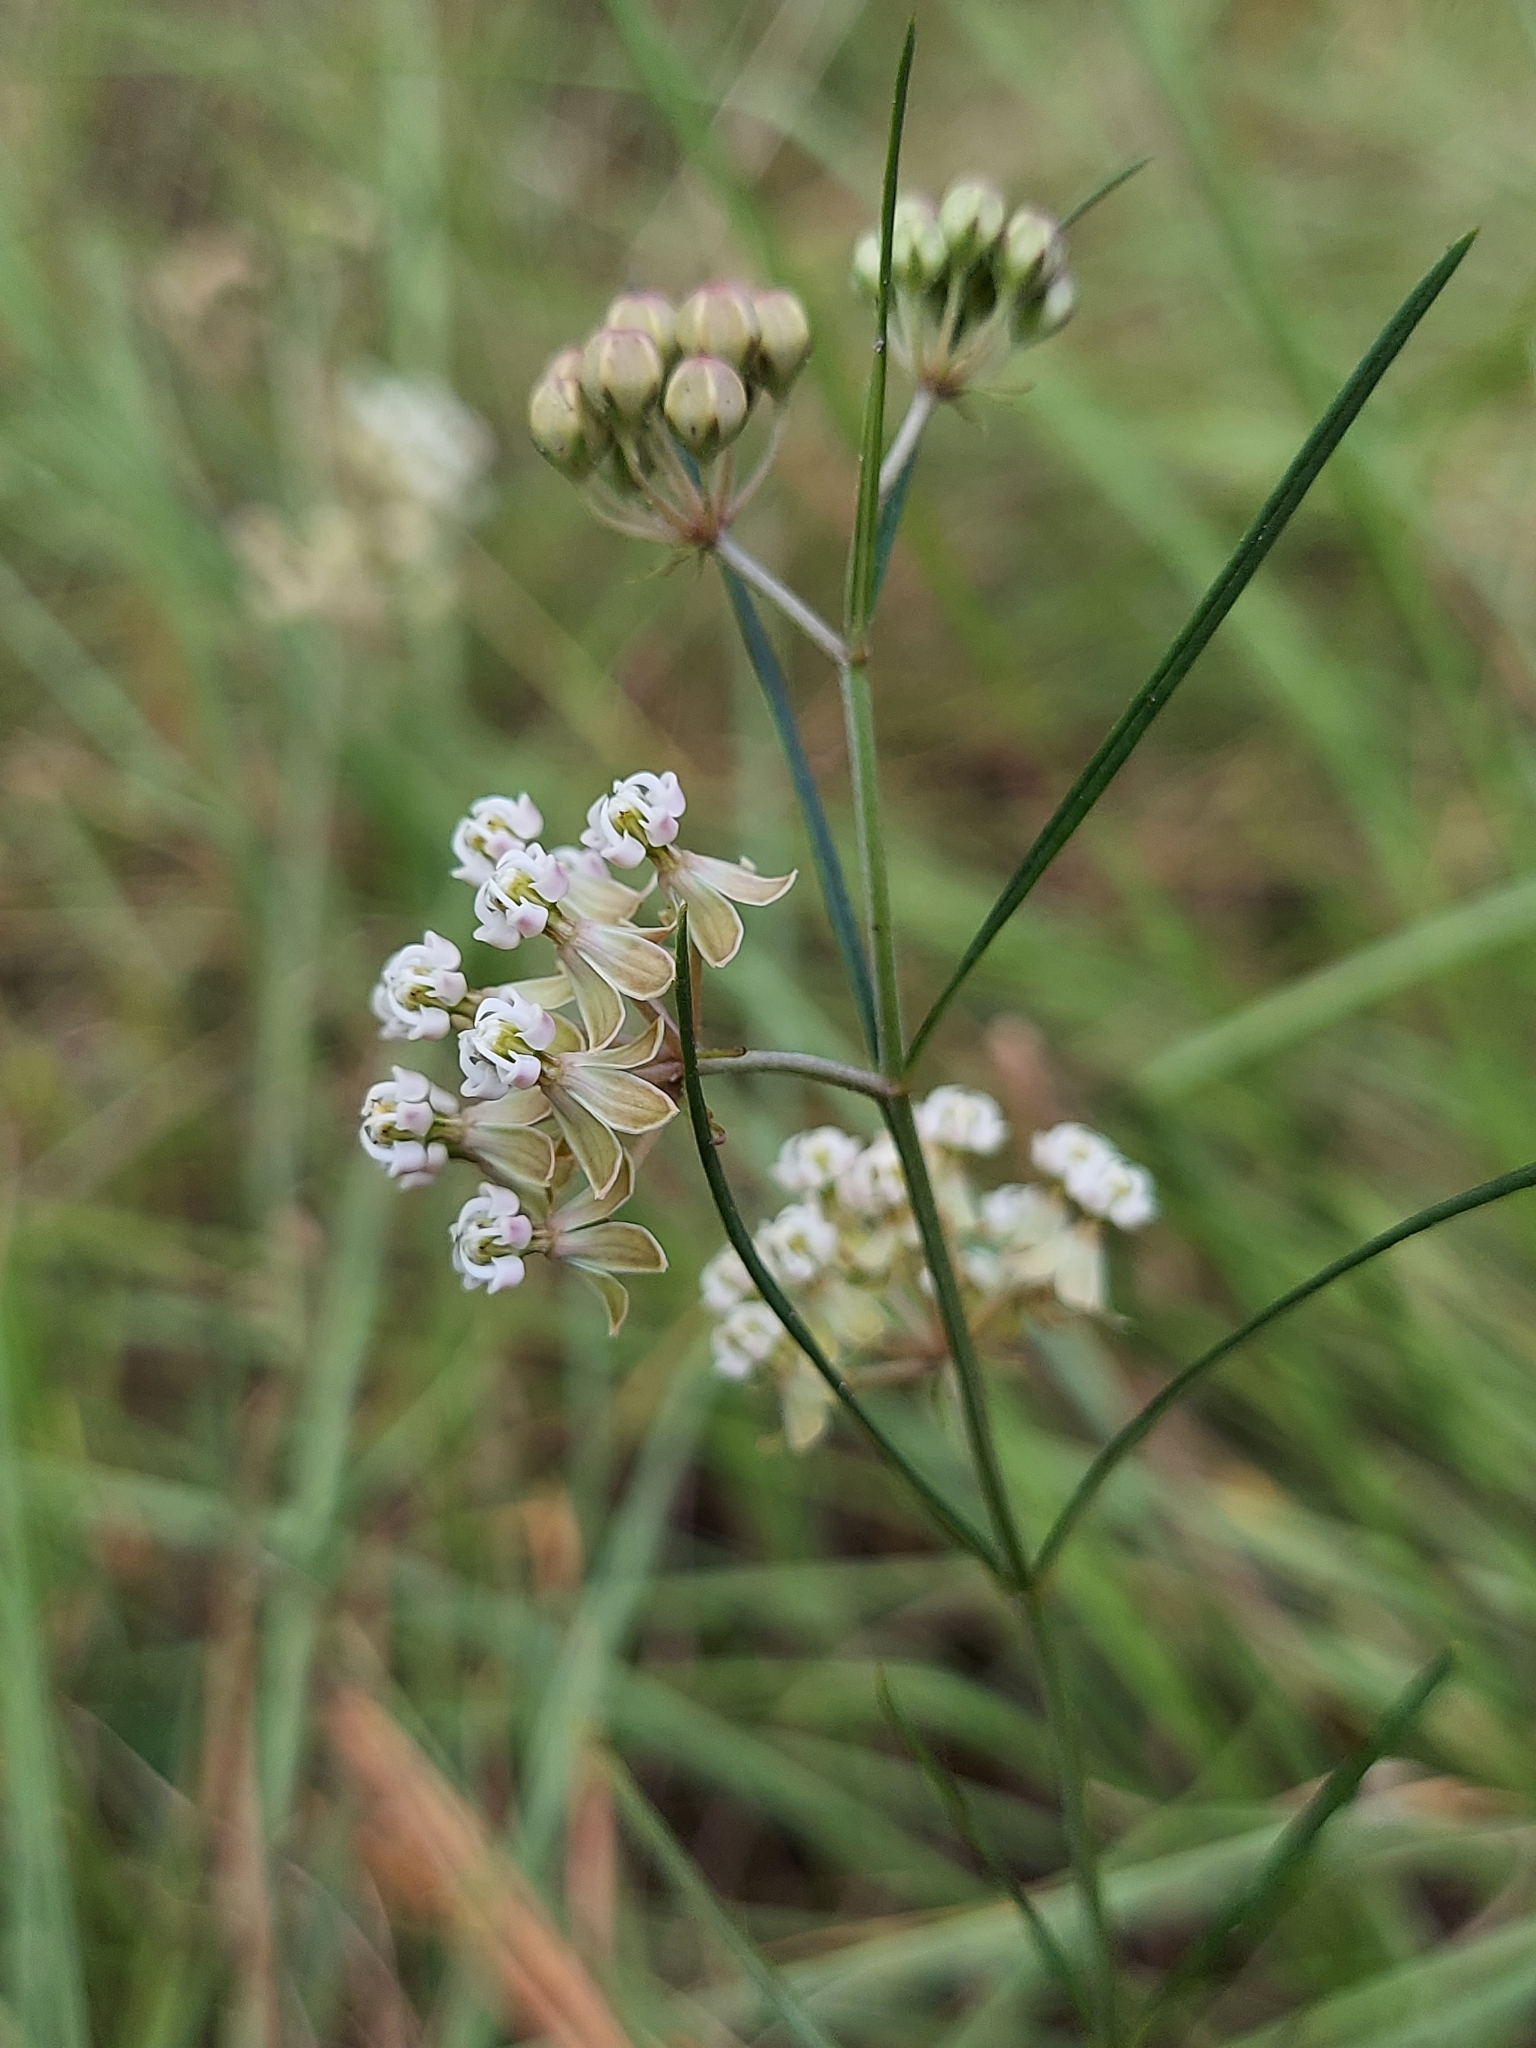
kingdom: Plantae
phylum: Tracheophyta
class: Magnoliopsida
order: Gentianales
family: Apocynaceae
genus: Asclepias
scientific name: Asclepias verticillata
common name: Eastern whorled milkweed
